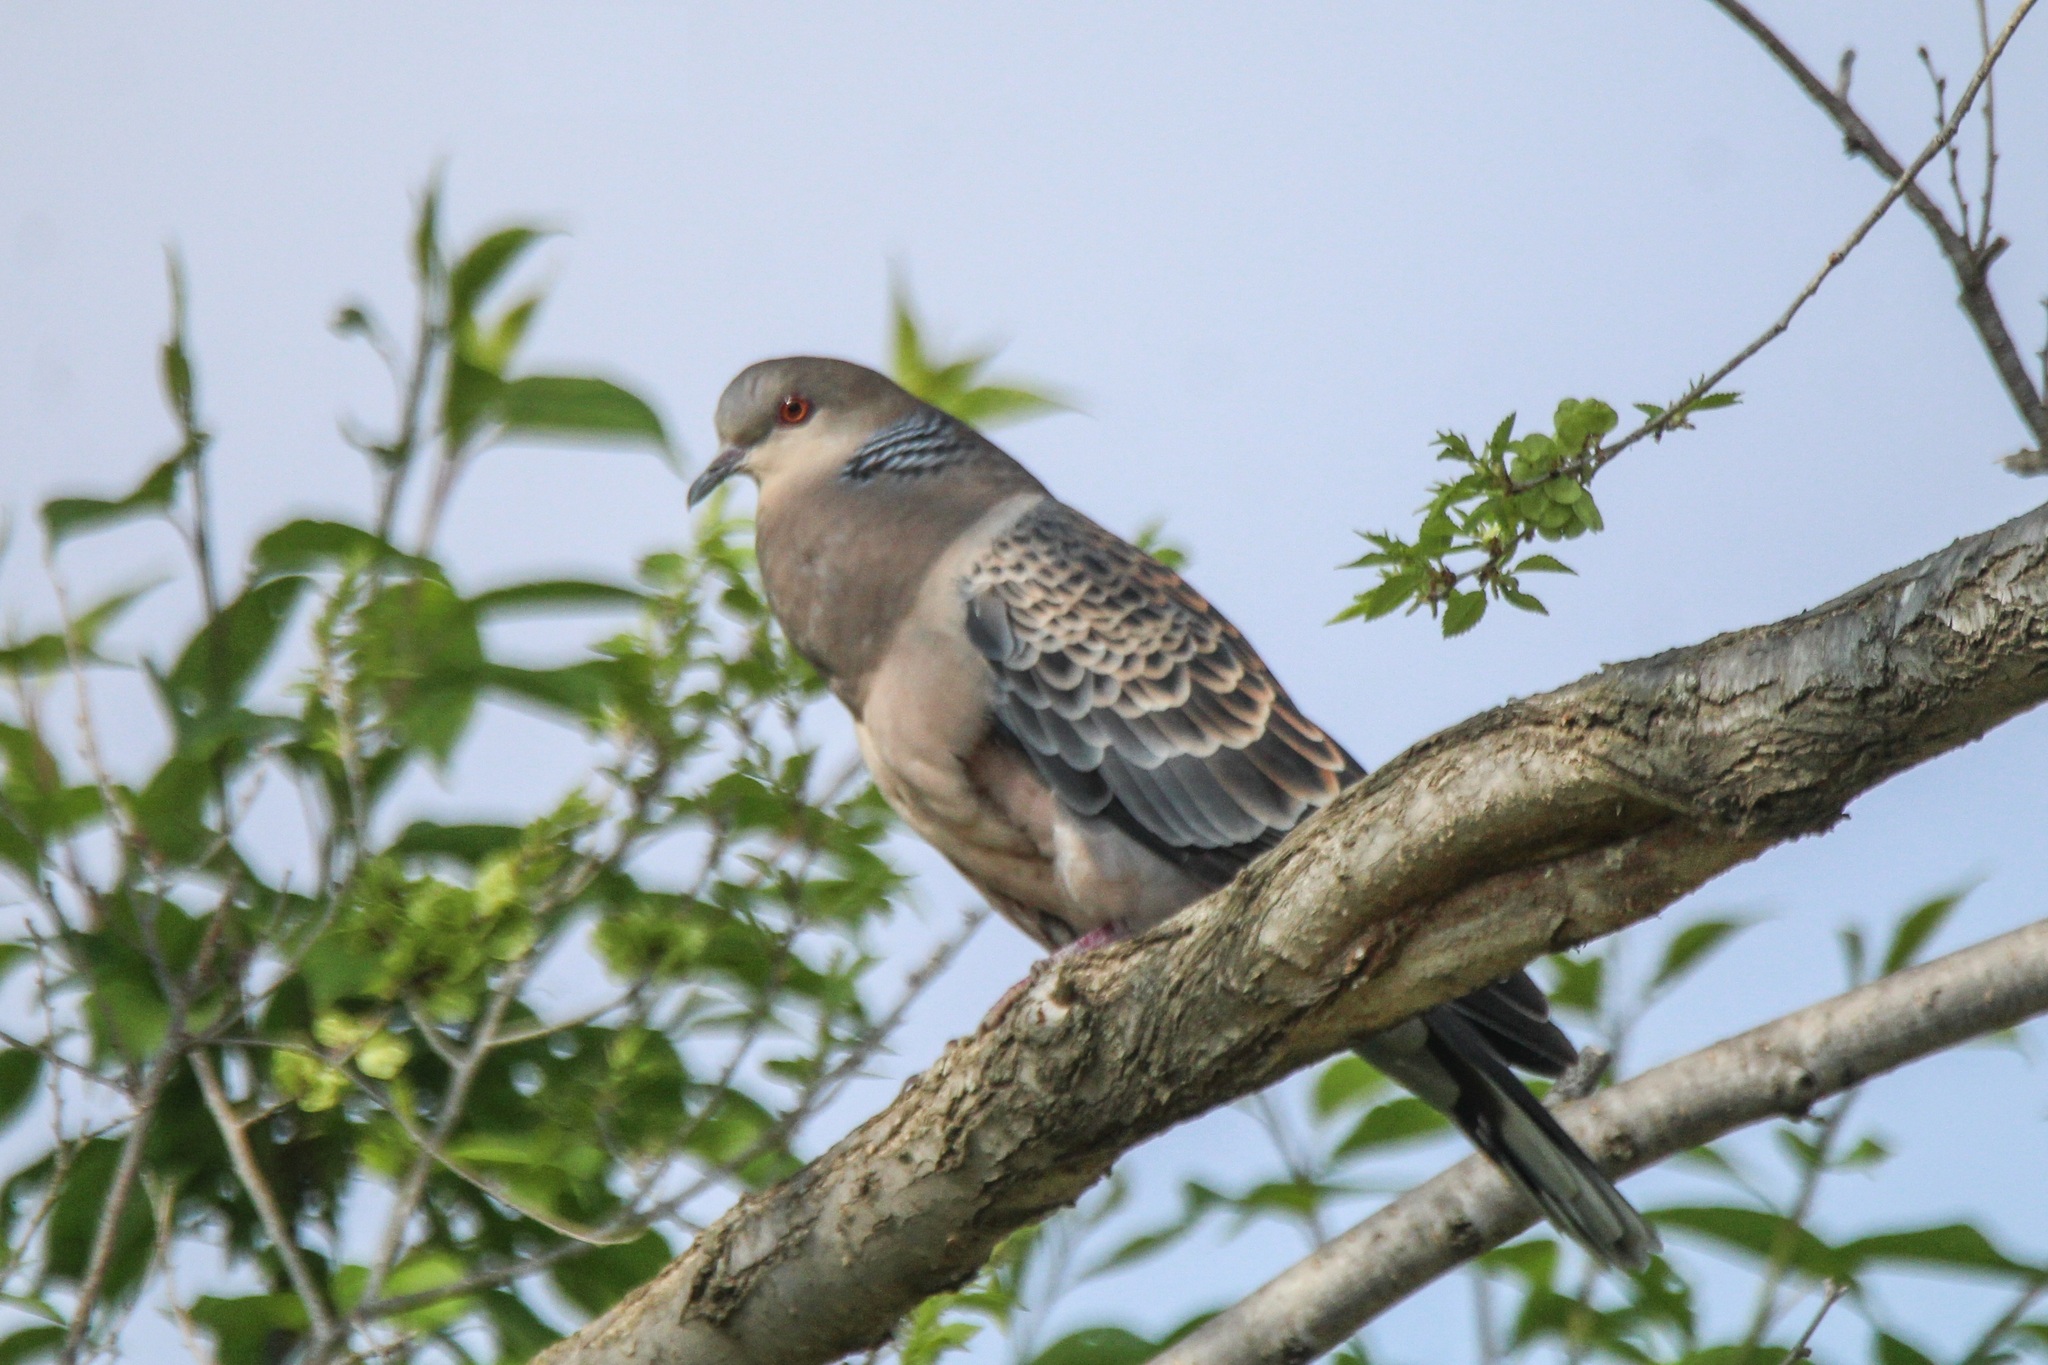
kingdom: Animalia
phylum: Chordata
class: Aves
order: Columbiformes
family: Columbidae
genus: Streptopelia
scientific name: Streptopelia orientalis
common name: Oriental turtle dove
